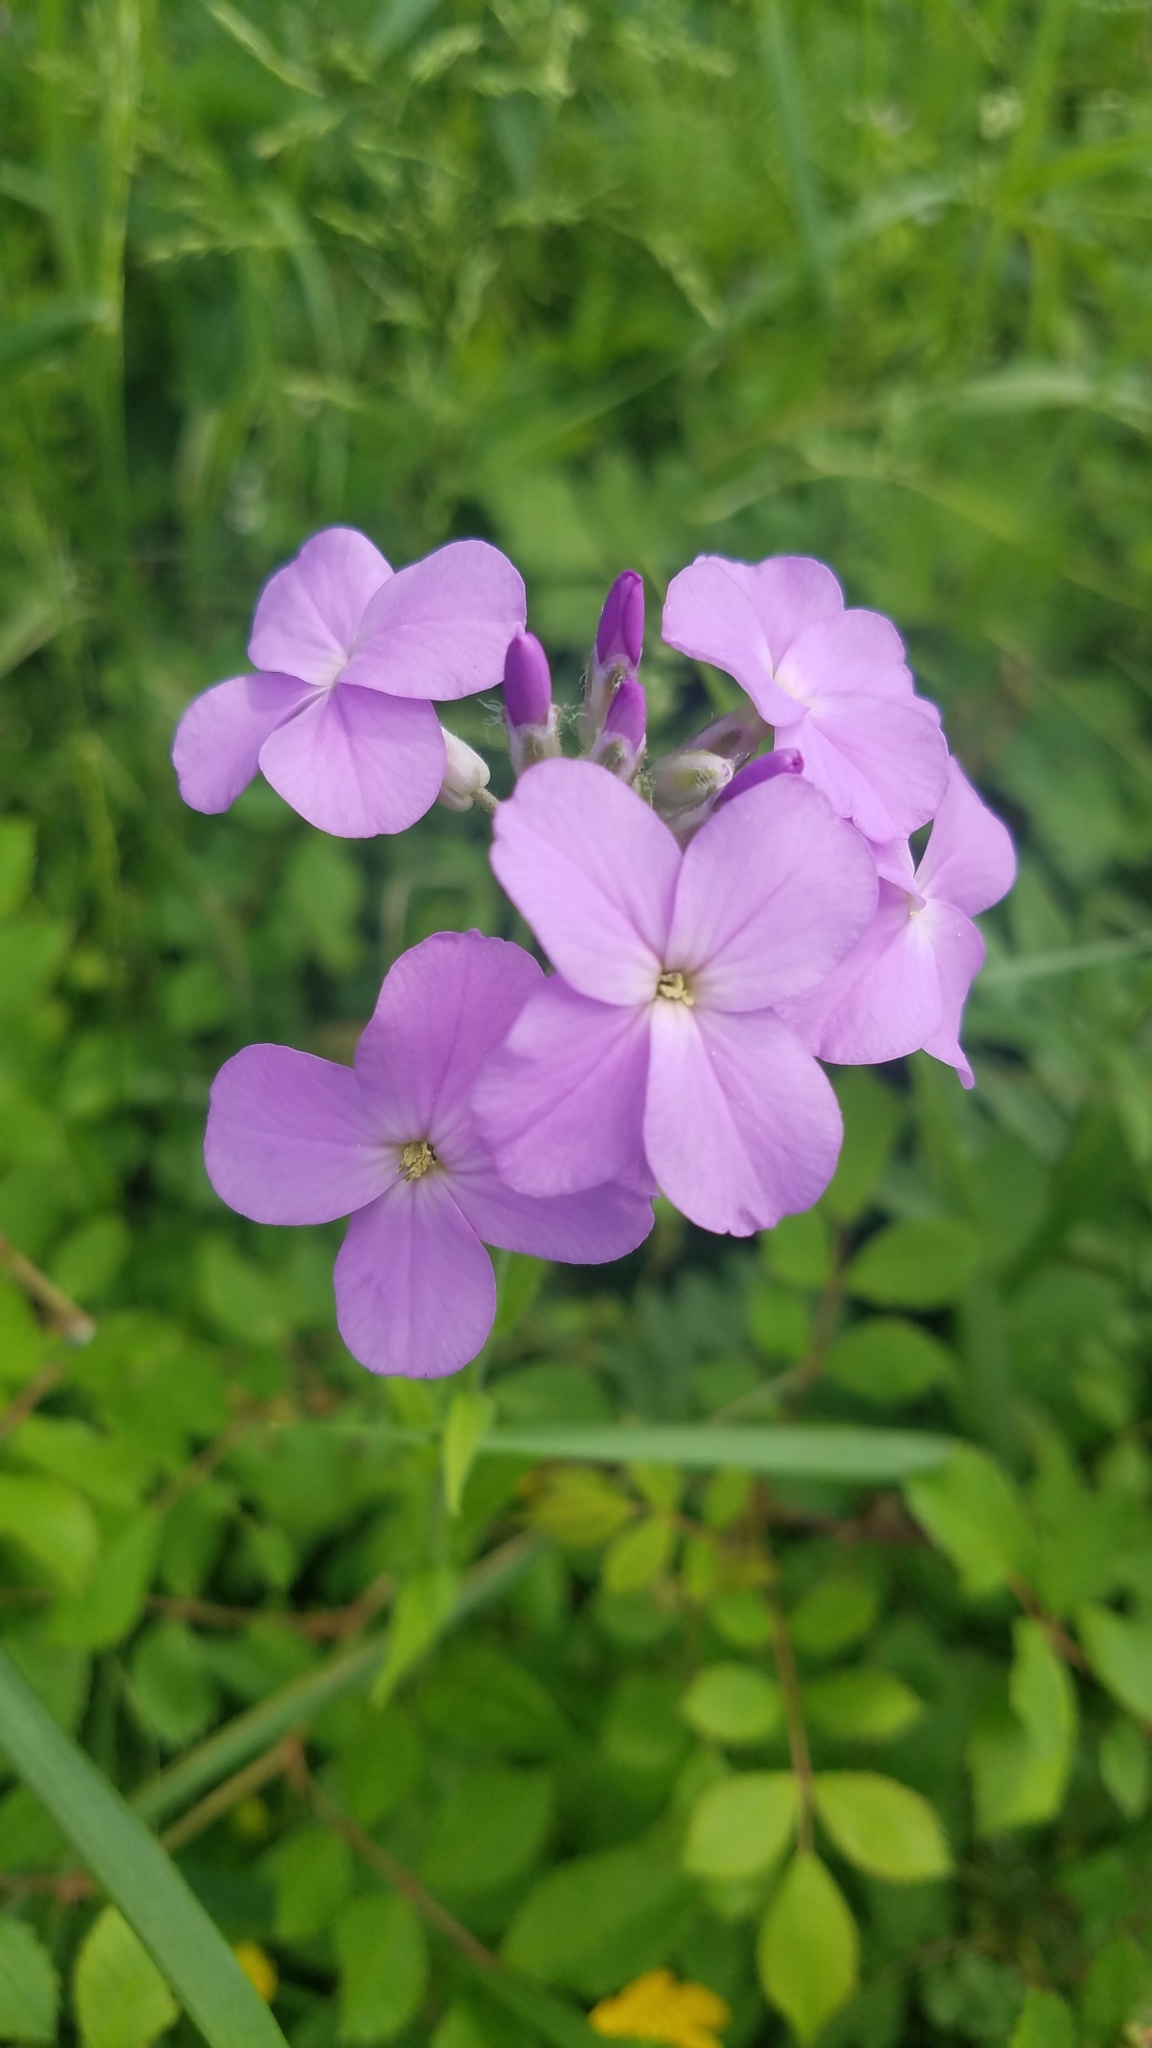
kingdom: Plantae
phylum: Tracheophyta
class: Magnoliopsida
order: Brassicales
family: Brassicaceae
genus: Hesperis
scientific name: Hesperis matronalis
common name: Dame's-violet
